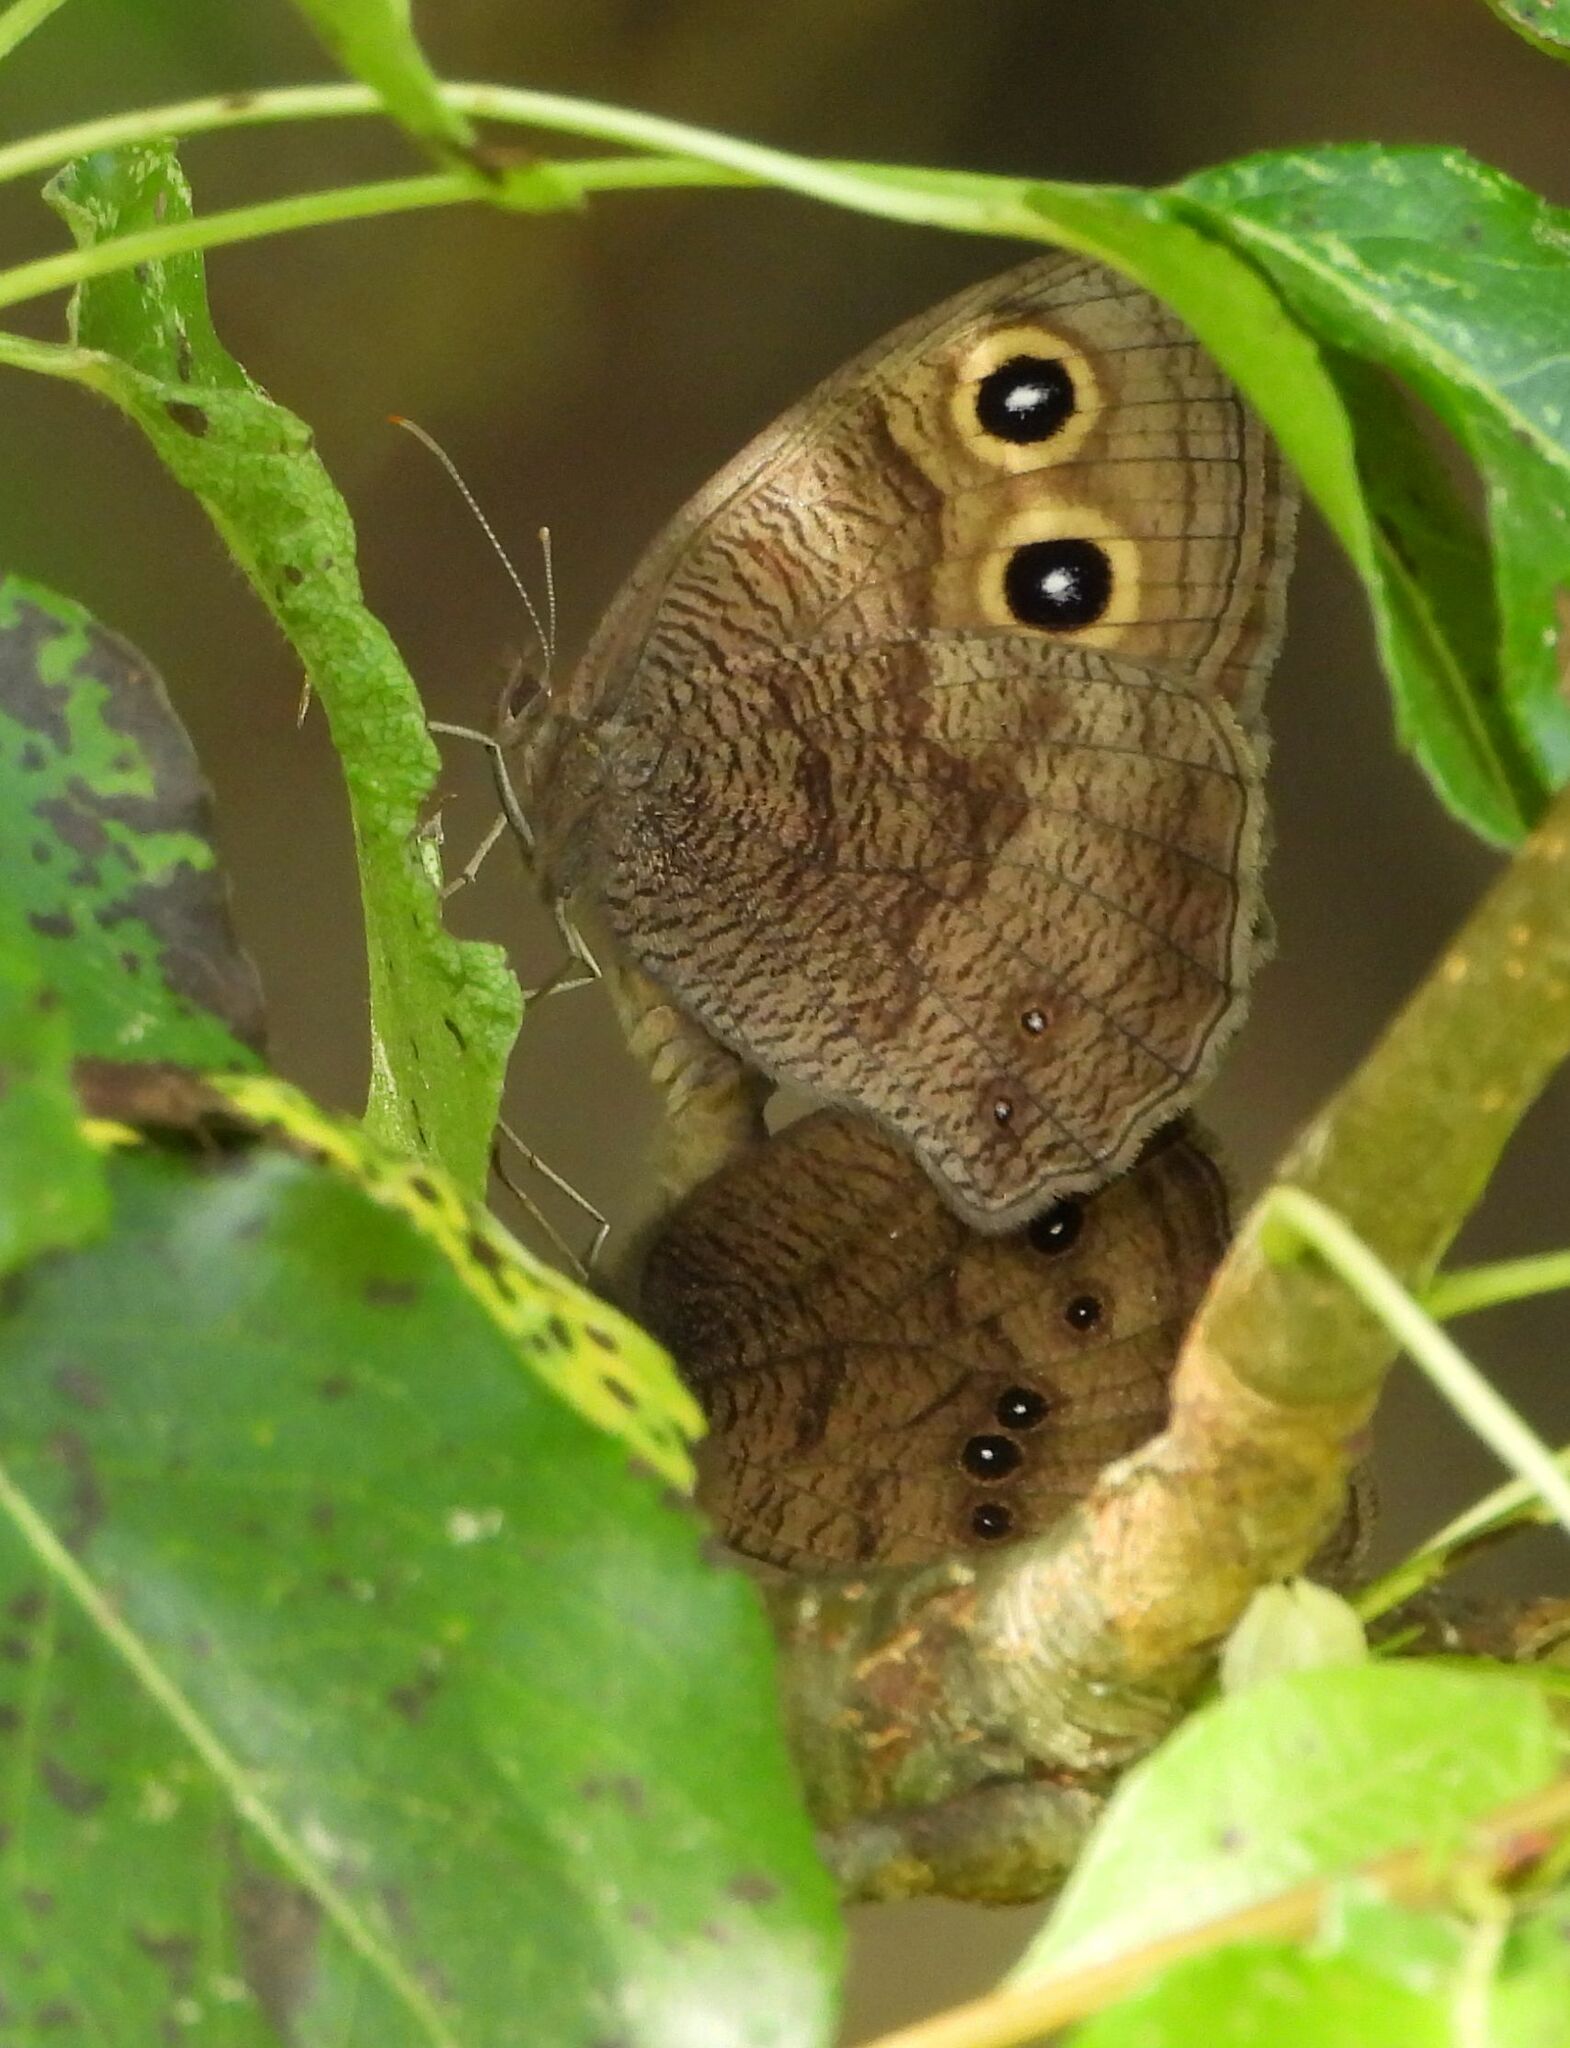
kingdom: Animalia
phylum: Arthropoda
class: Insecta
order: Lepidoptera
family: Nymphalidae
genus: Cercyonis
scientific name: Cercyonis pegala
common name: Common wood-nymph
